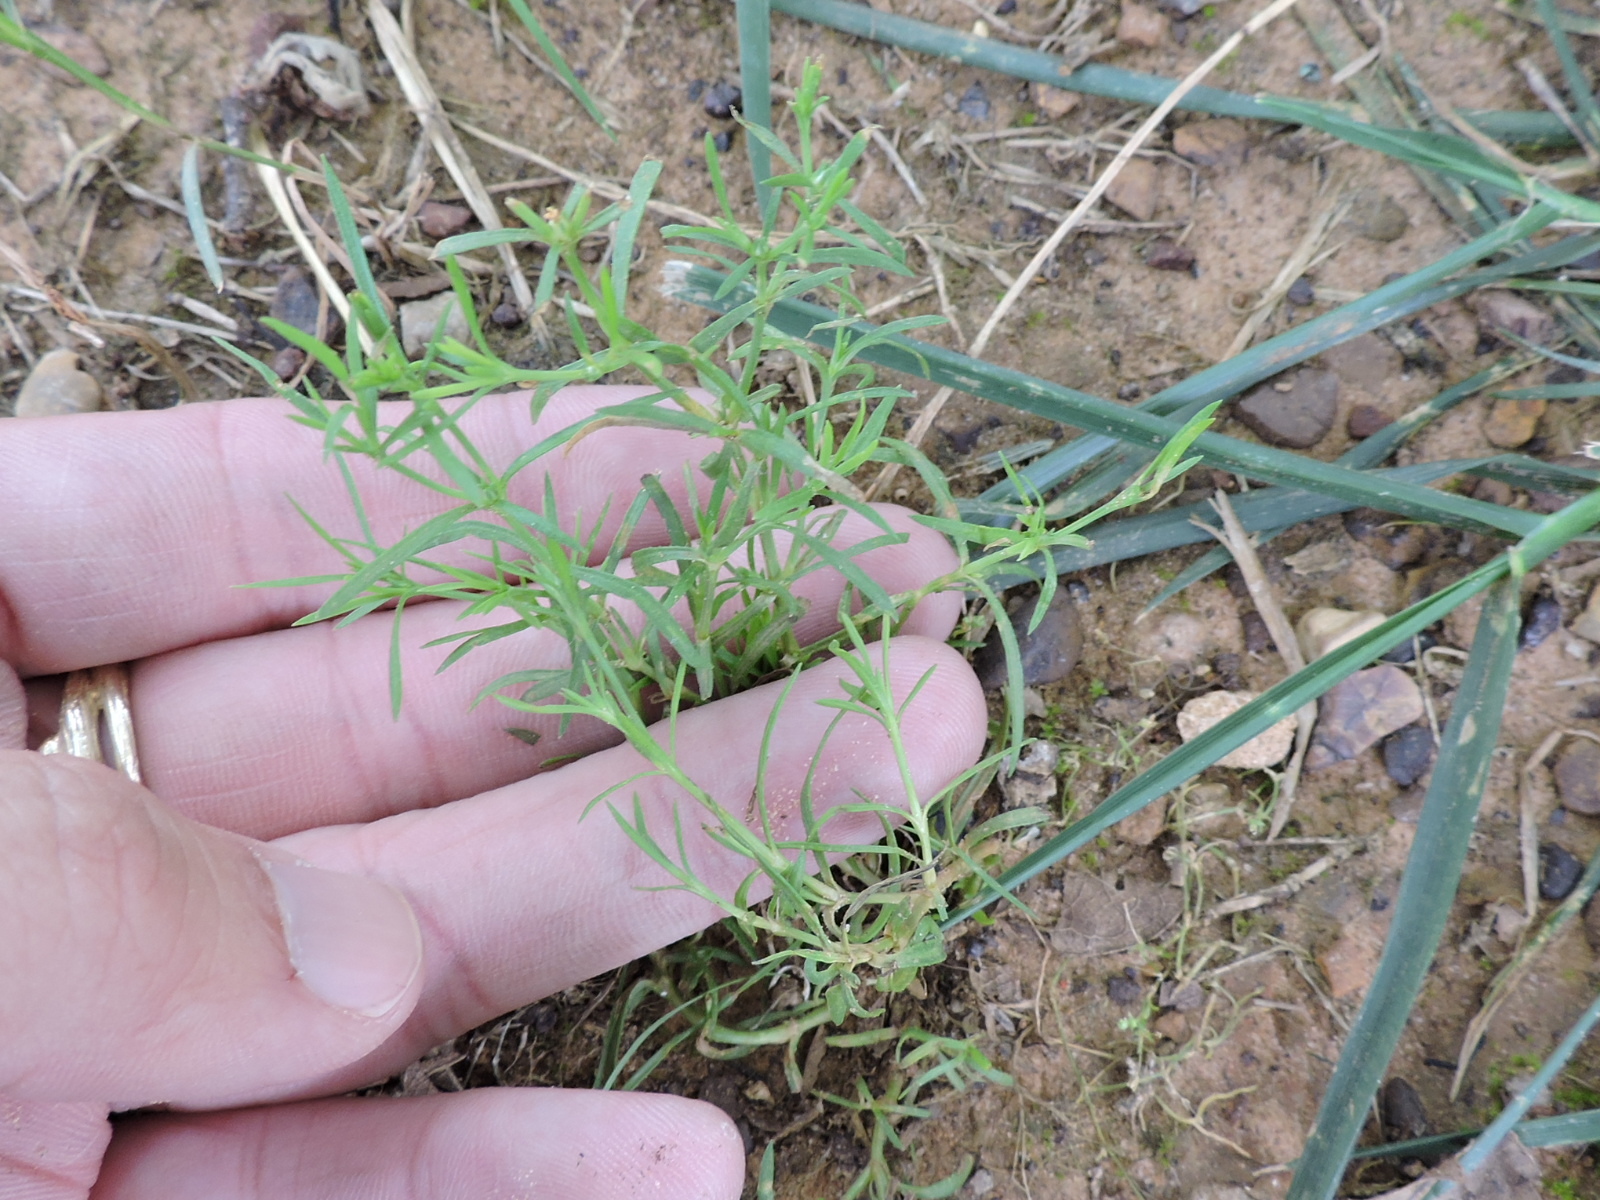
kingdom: Plantae
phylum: Tracheophyta
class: Magnoliopsida
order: Lamiales
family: Tetrachondraceae
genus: Polypremum
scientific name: Polypremum procumbens
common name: Juniper-leaf
